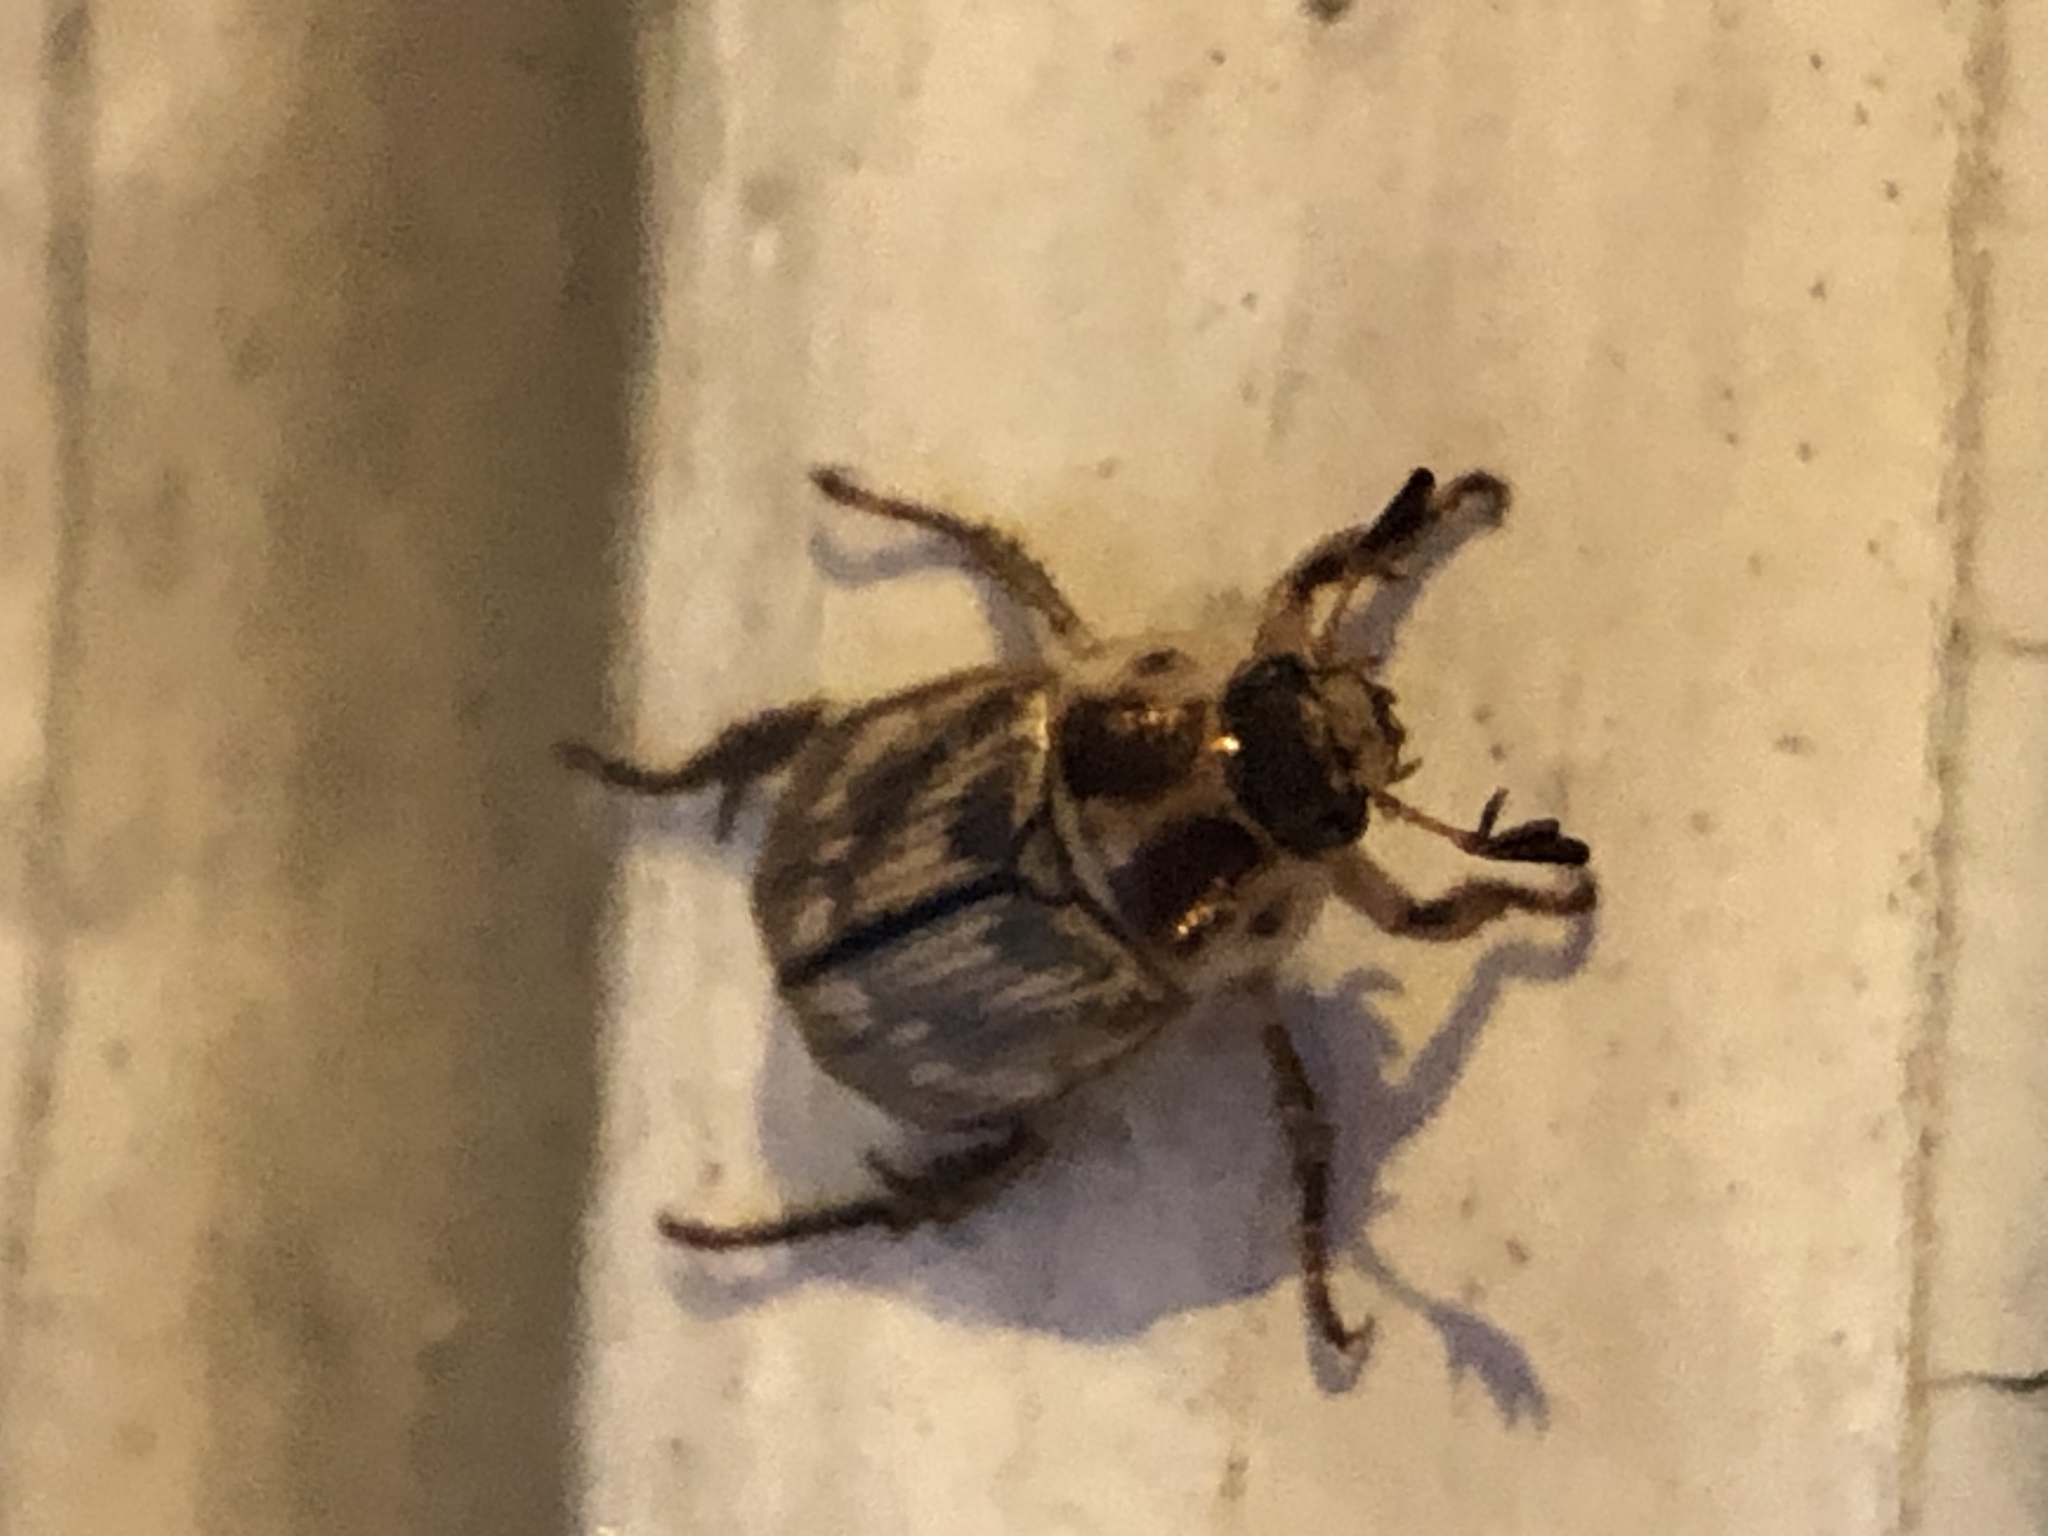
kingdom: Animalia
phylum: Arthropoda
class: Insecta
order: Coleoptera
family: Scarabaeidae
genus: Exomala
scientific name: Exomala orientalis
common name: Oriental beetle
